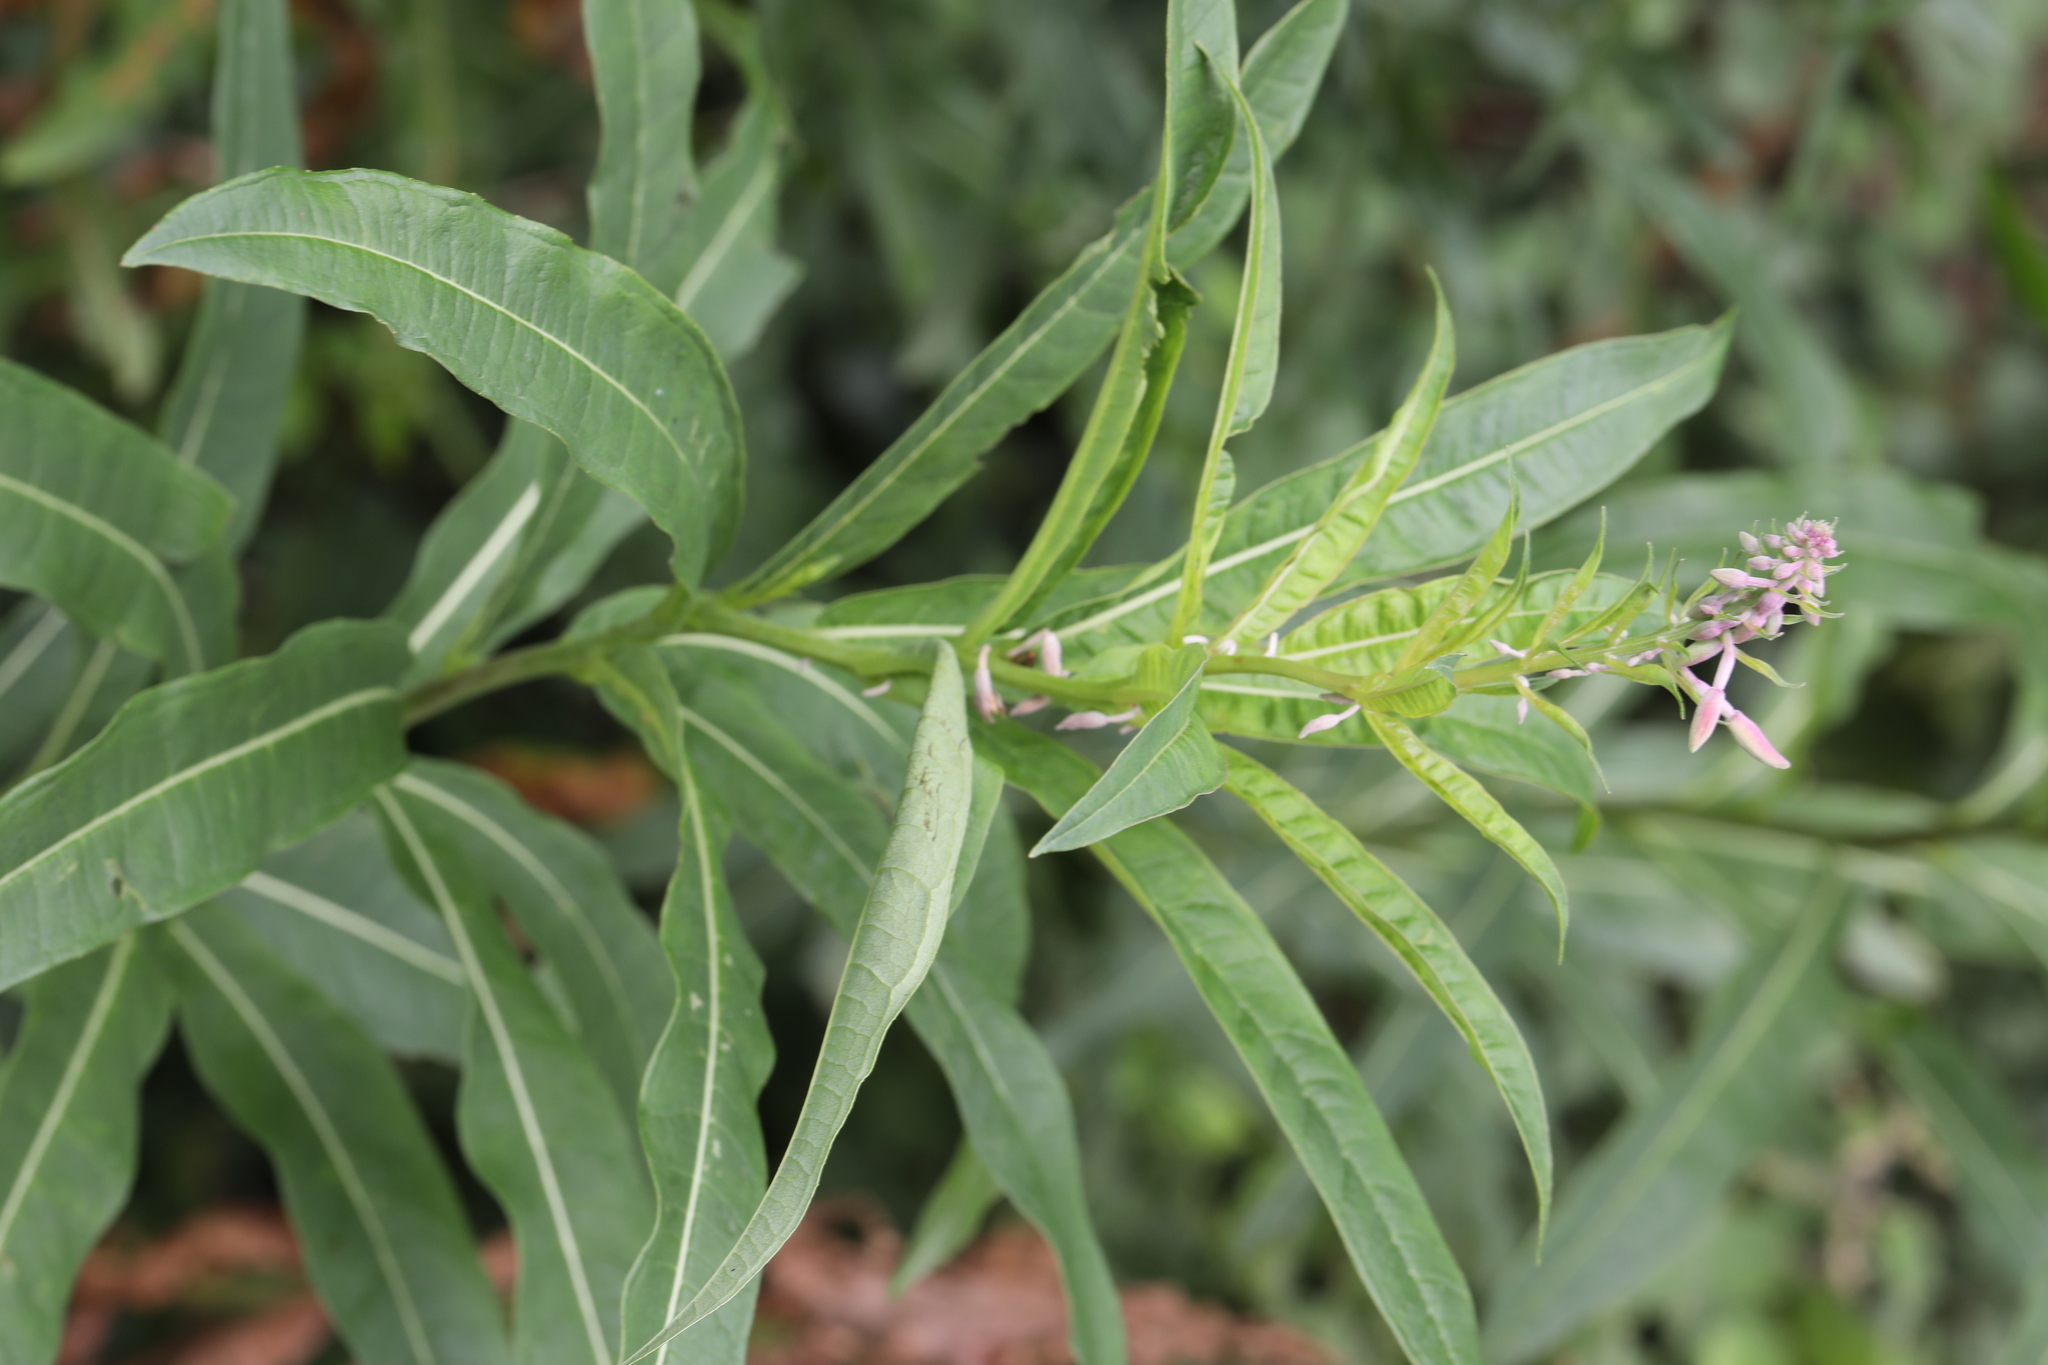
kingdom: Plantae
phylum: Tracheophyta
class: Magnoliopsida
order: Myrtales
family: Onagraceae
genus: Chamaenerion
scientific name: Chamaenerion angustifolium
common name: Fireweed
